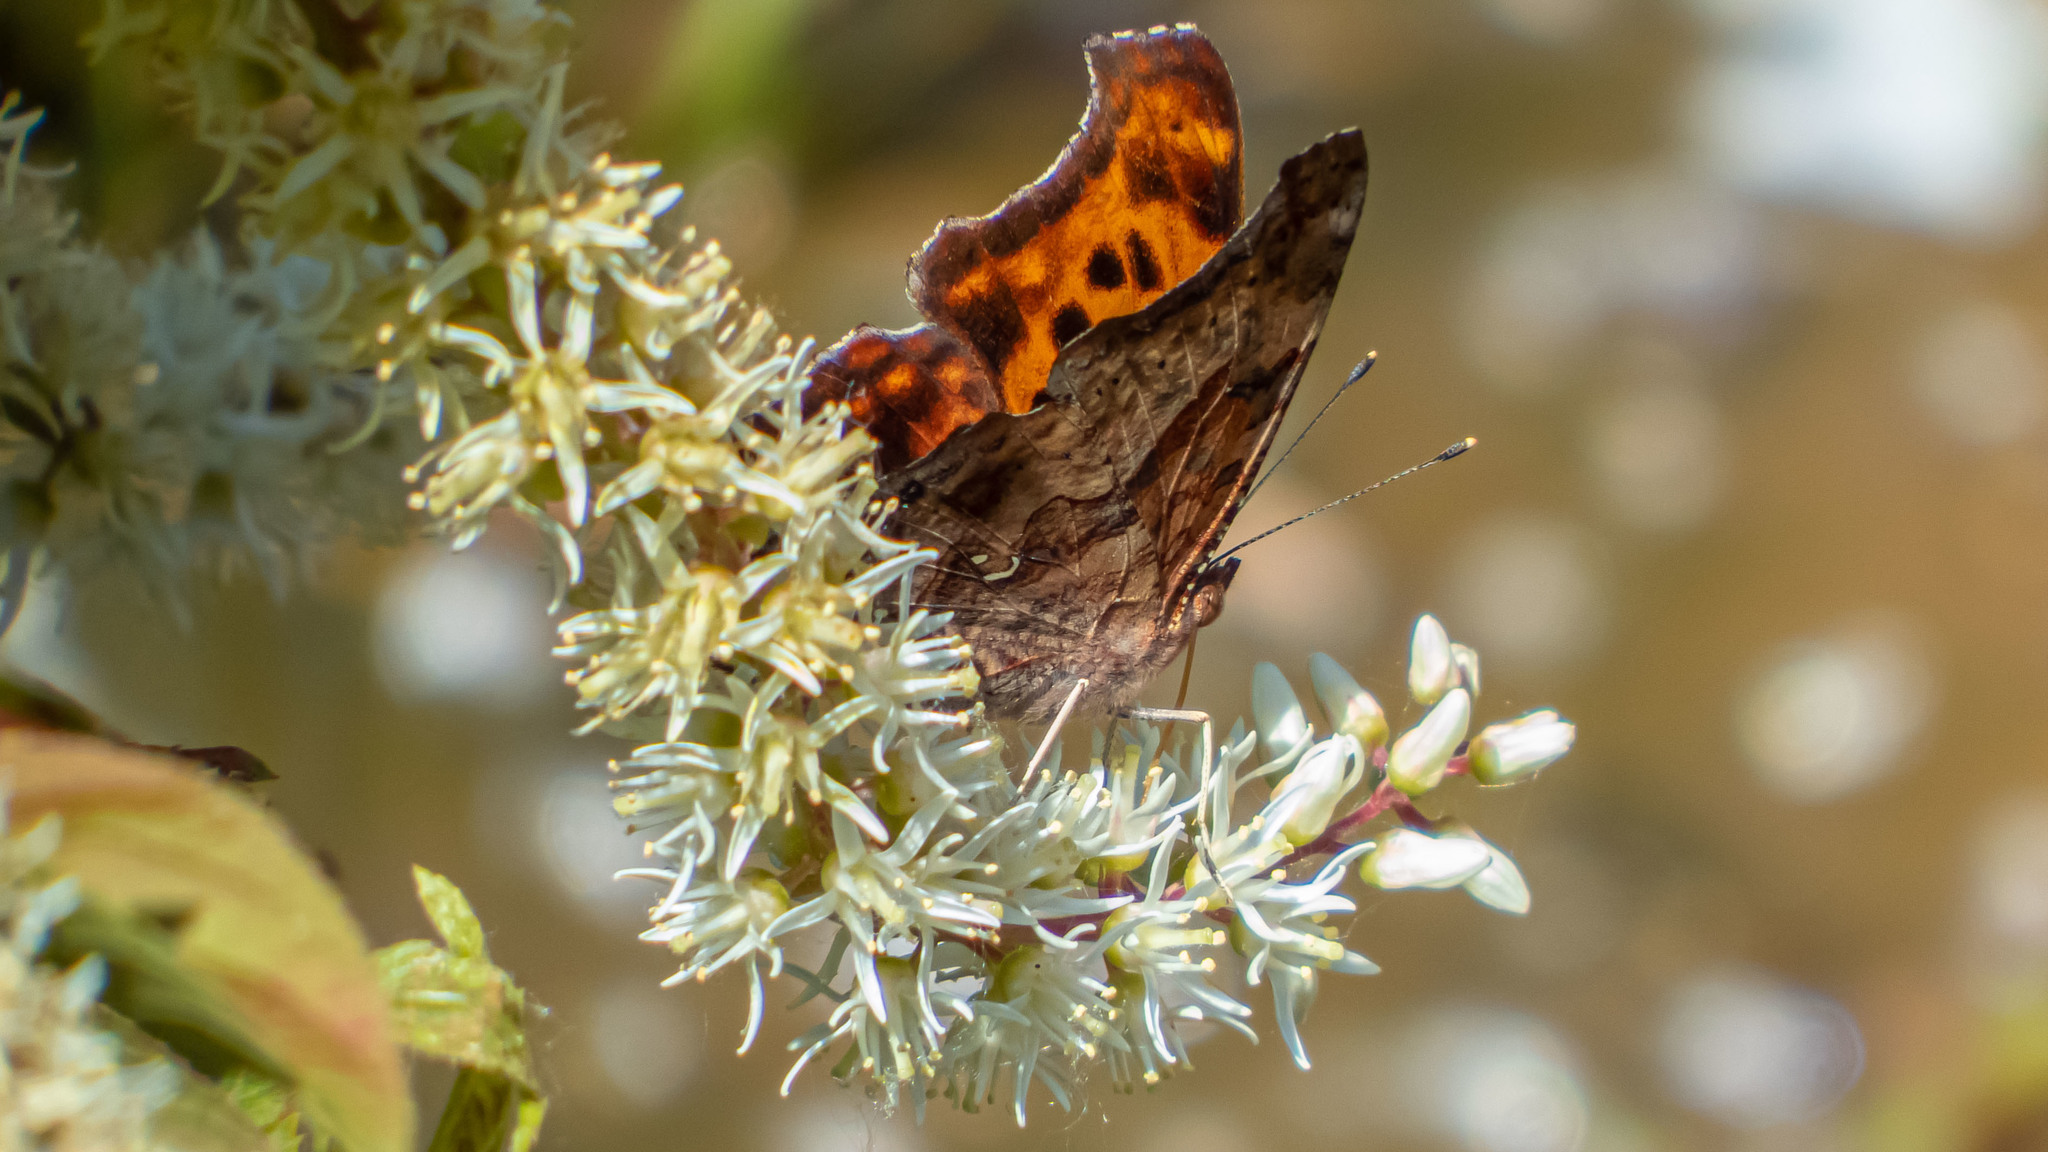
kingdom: Animalia
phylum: Arthropoda
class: Insecta
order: Lepidoptera
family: Nymphalidae
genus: Polygonia
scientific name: Polygonia interrogationis
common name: Question mark
